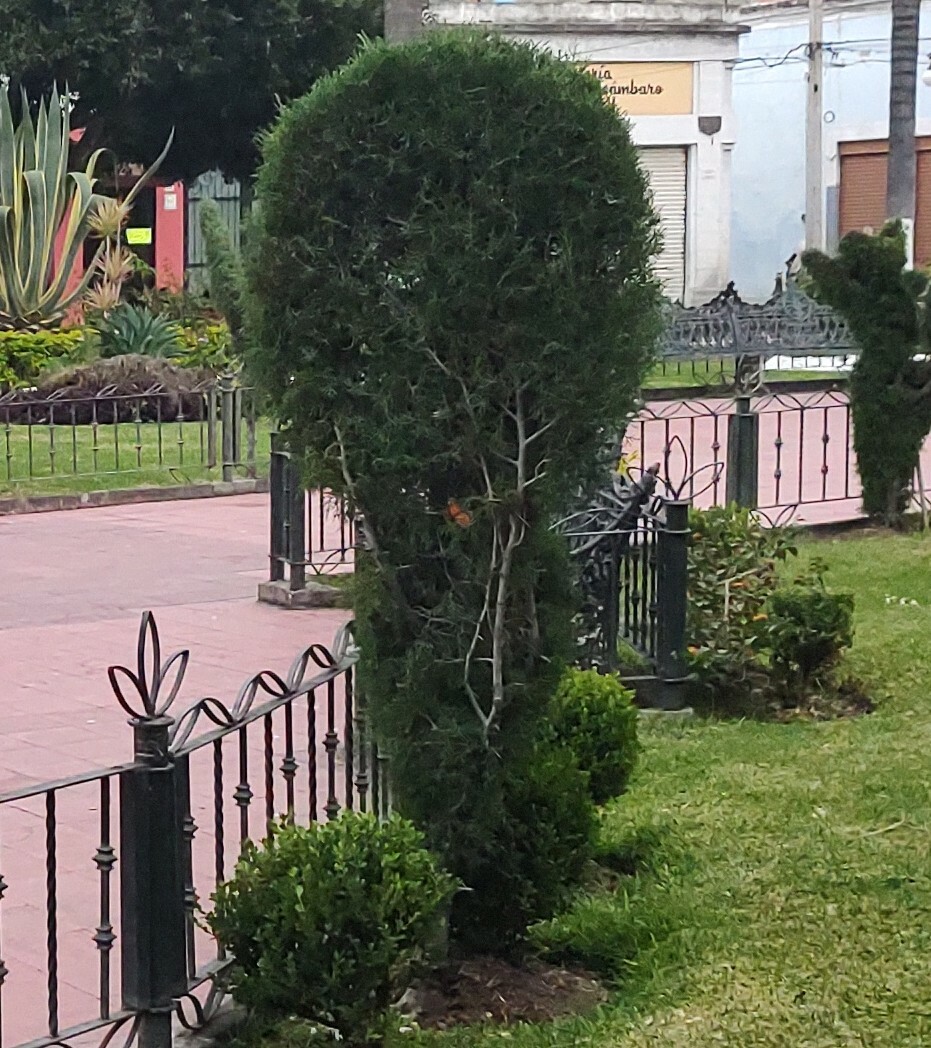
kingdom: Animalia
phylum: Arthropoda
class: Insecta
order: Lepidoptera
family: Nymphalidae
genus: Danaus
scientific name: Danaus plexippus
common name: Monarch
